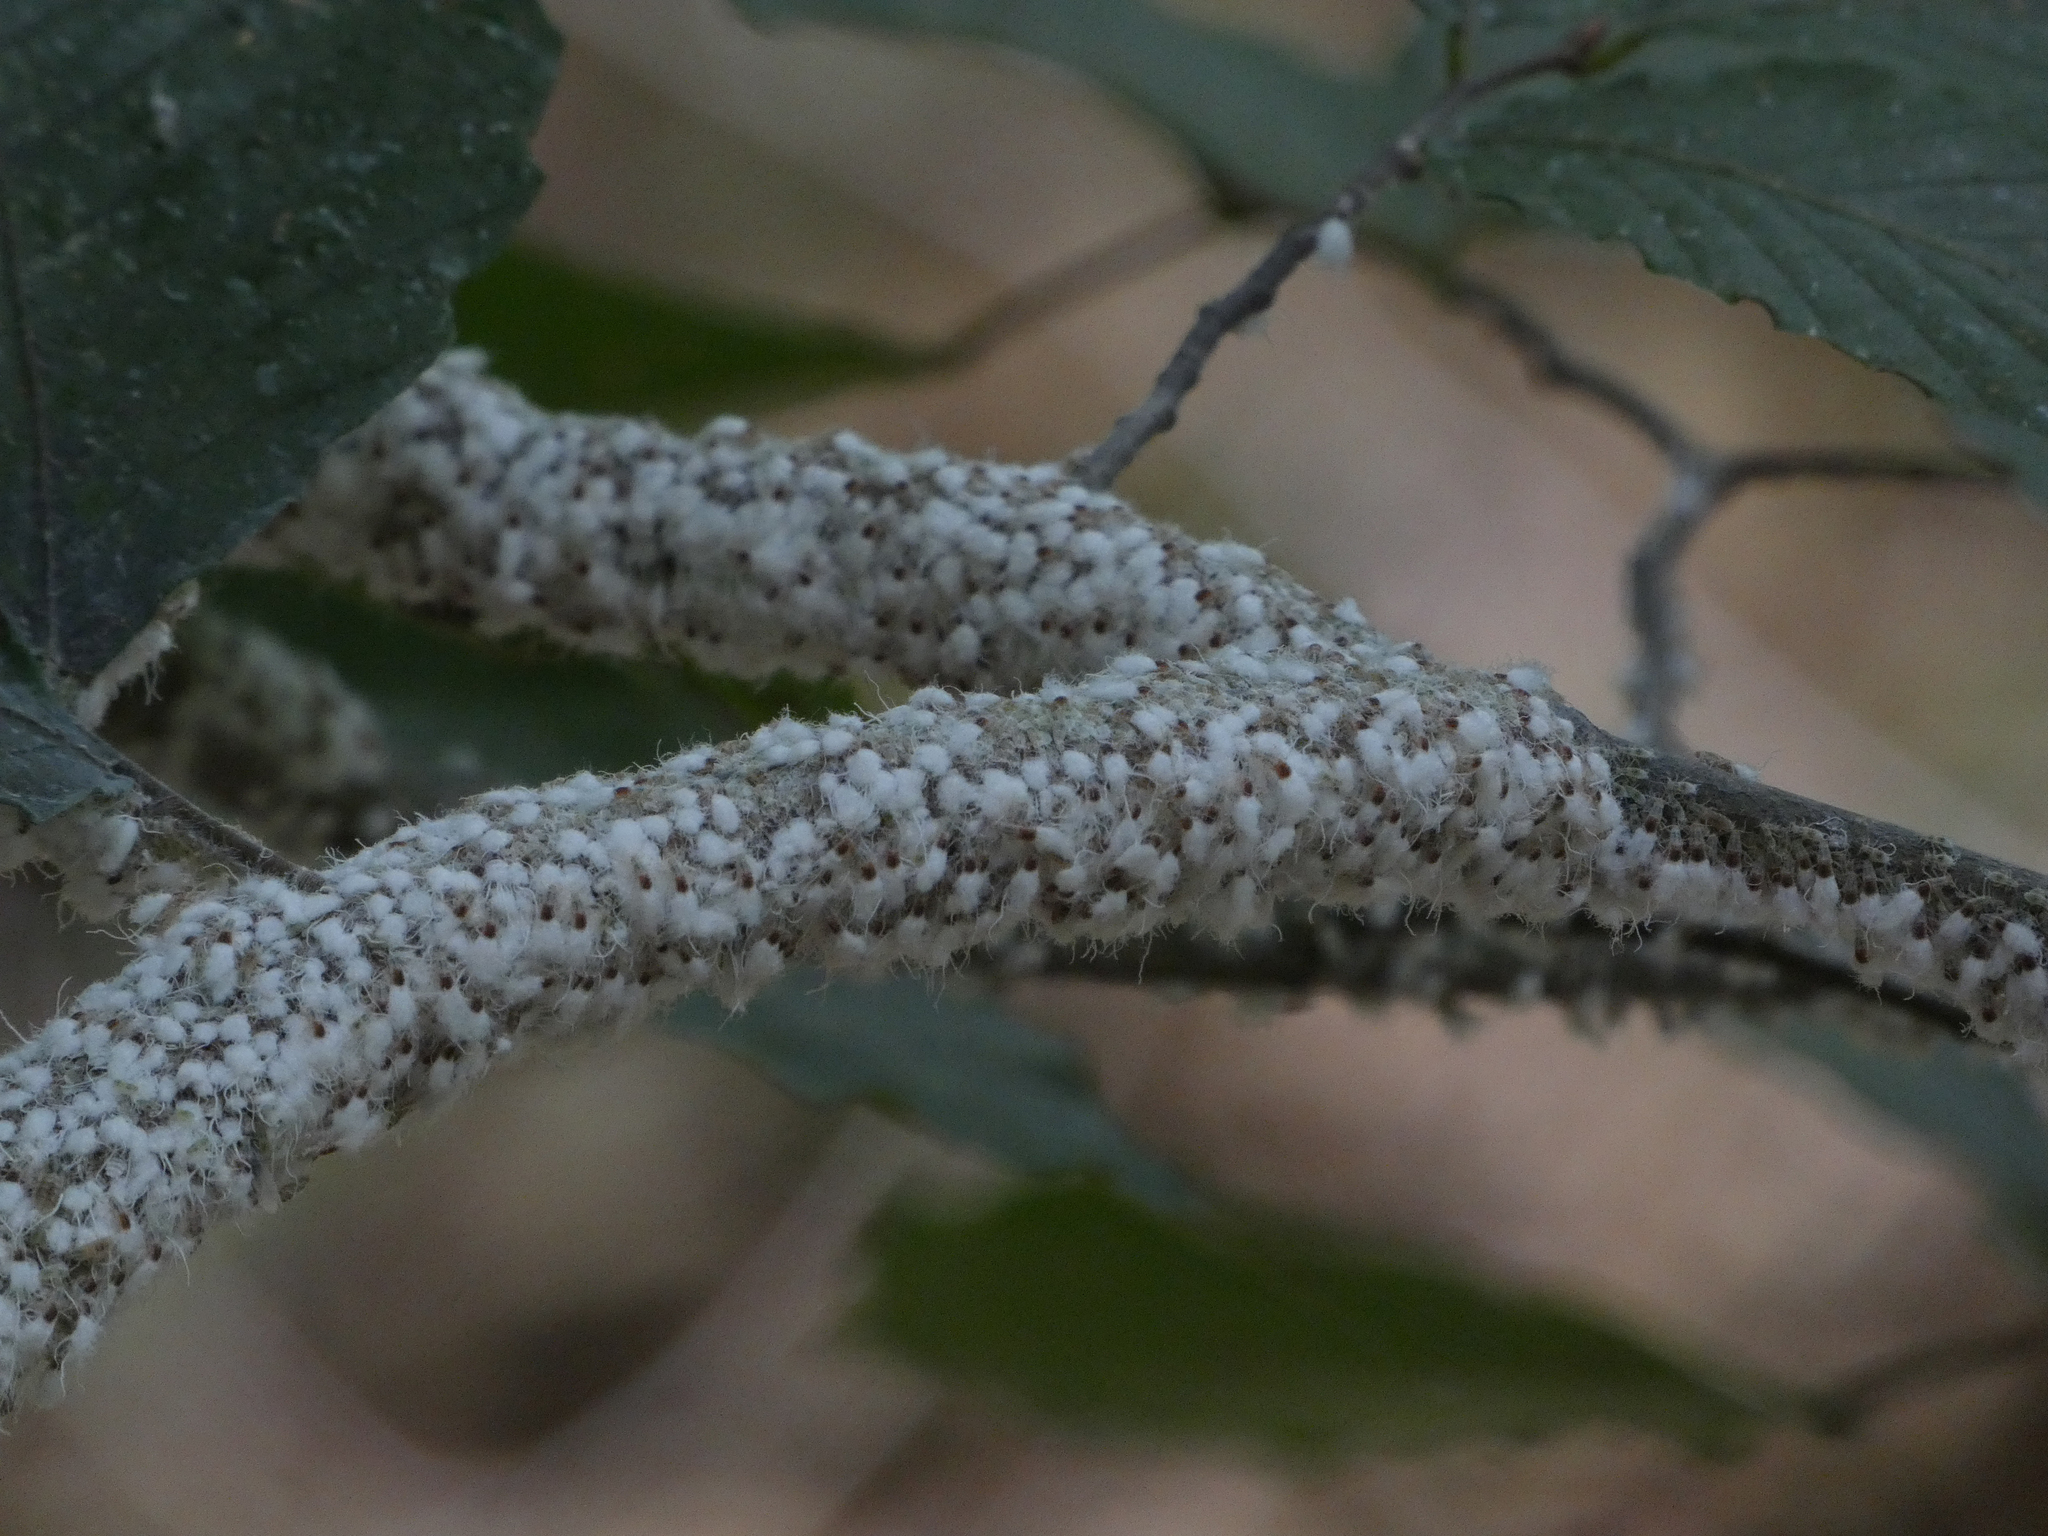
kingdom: Animalia
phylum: Arthropoda
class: Insecta
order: Hemiptera
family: Aphididae
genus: Grylloprociphilus
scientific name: Grylloprociphilus imbricator
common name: Beech blight aphid
